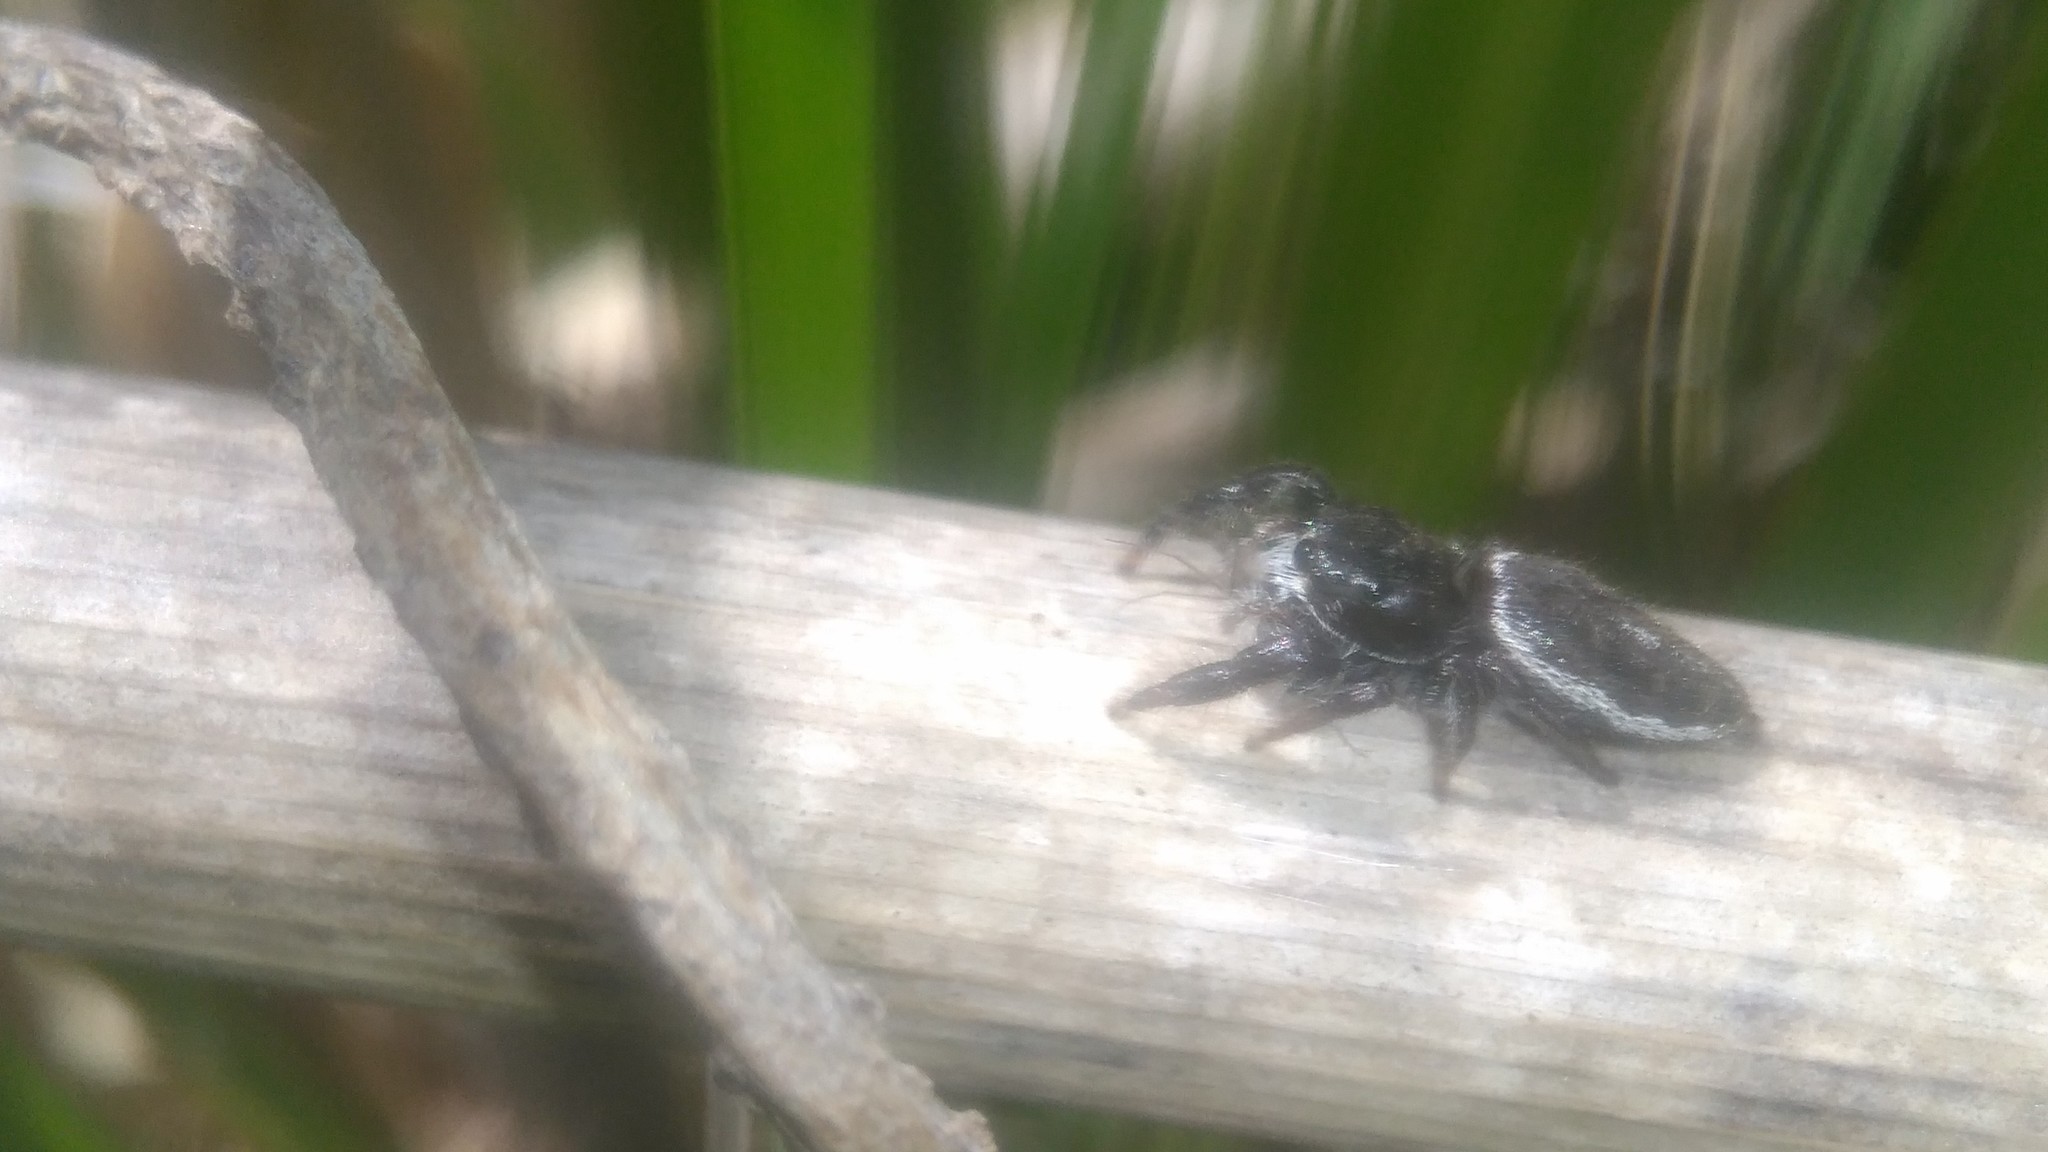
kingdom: Animalia
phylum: Arthropoda
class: Arachnida
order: Araneae
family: Salticidae
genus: Dendryphantes
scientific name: Dendryphantes mordax
